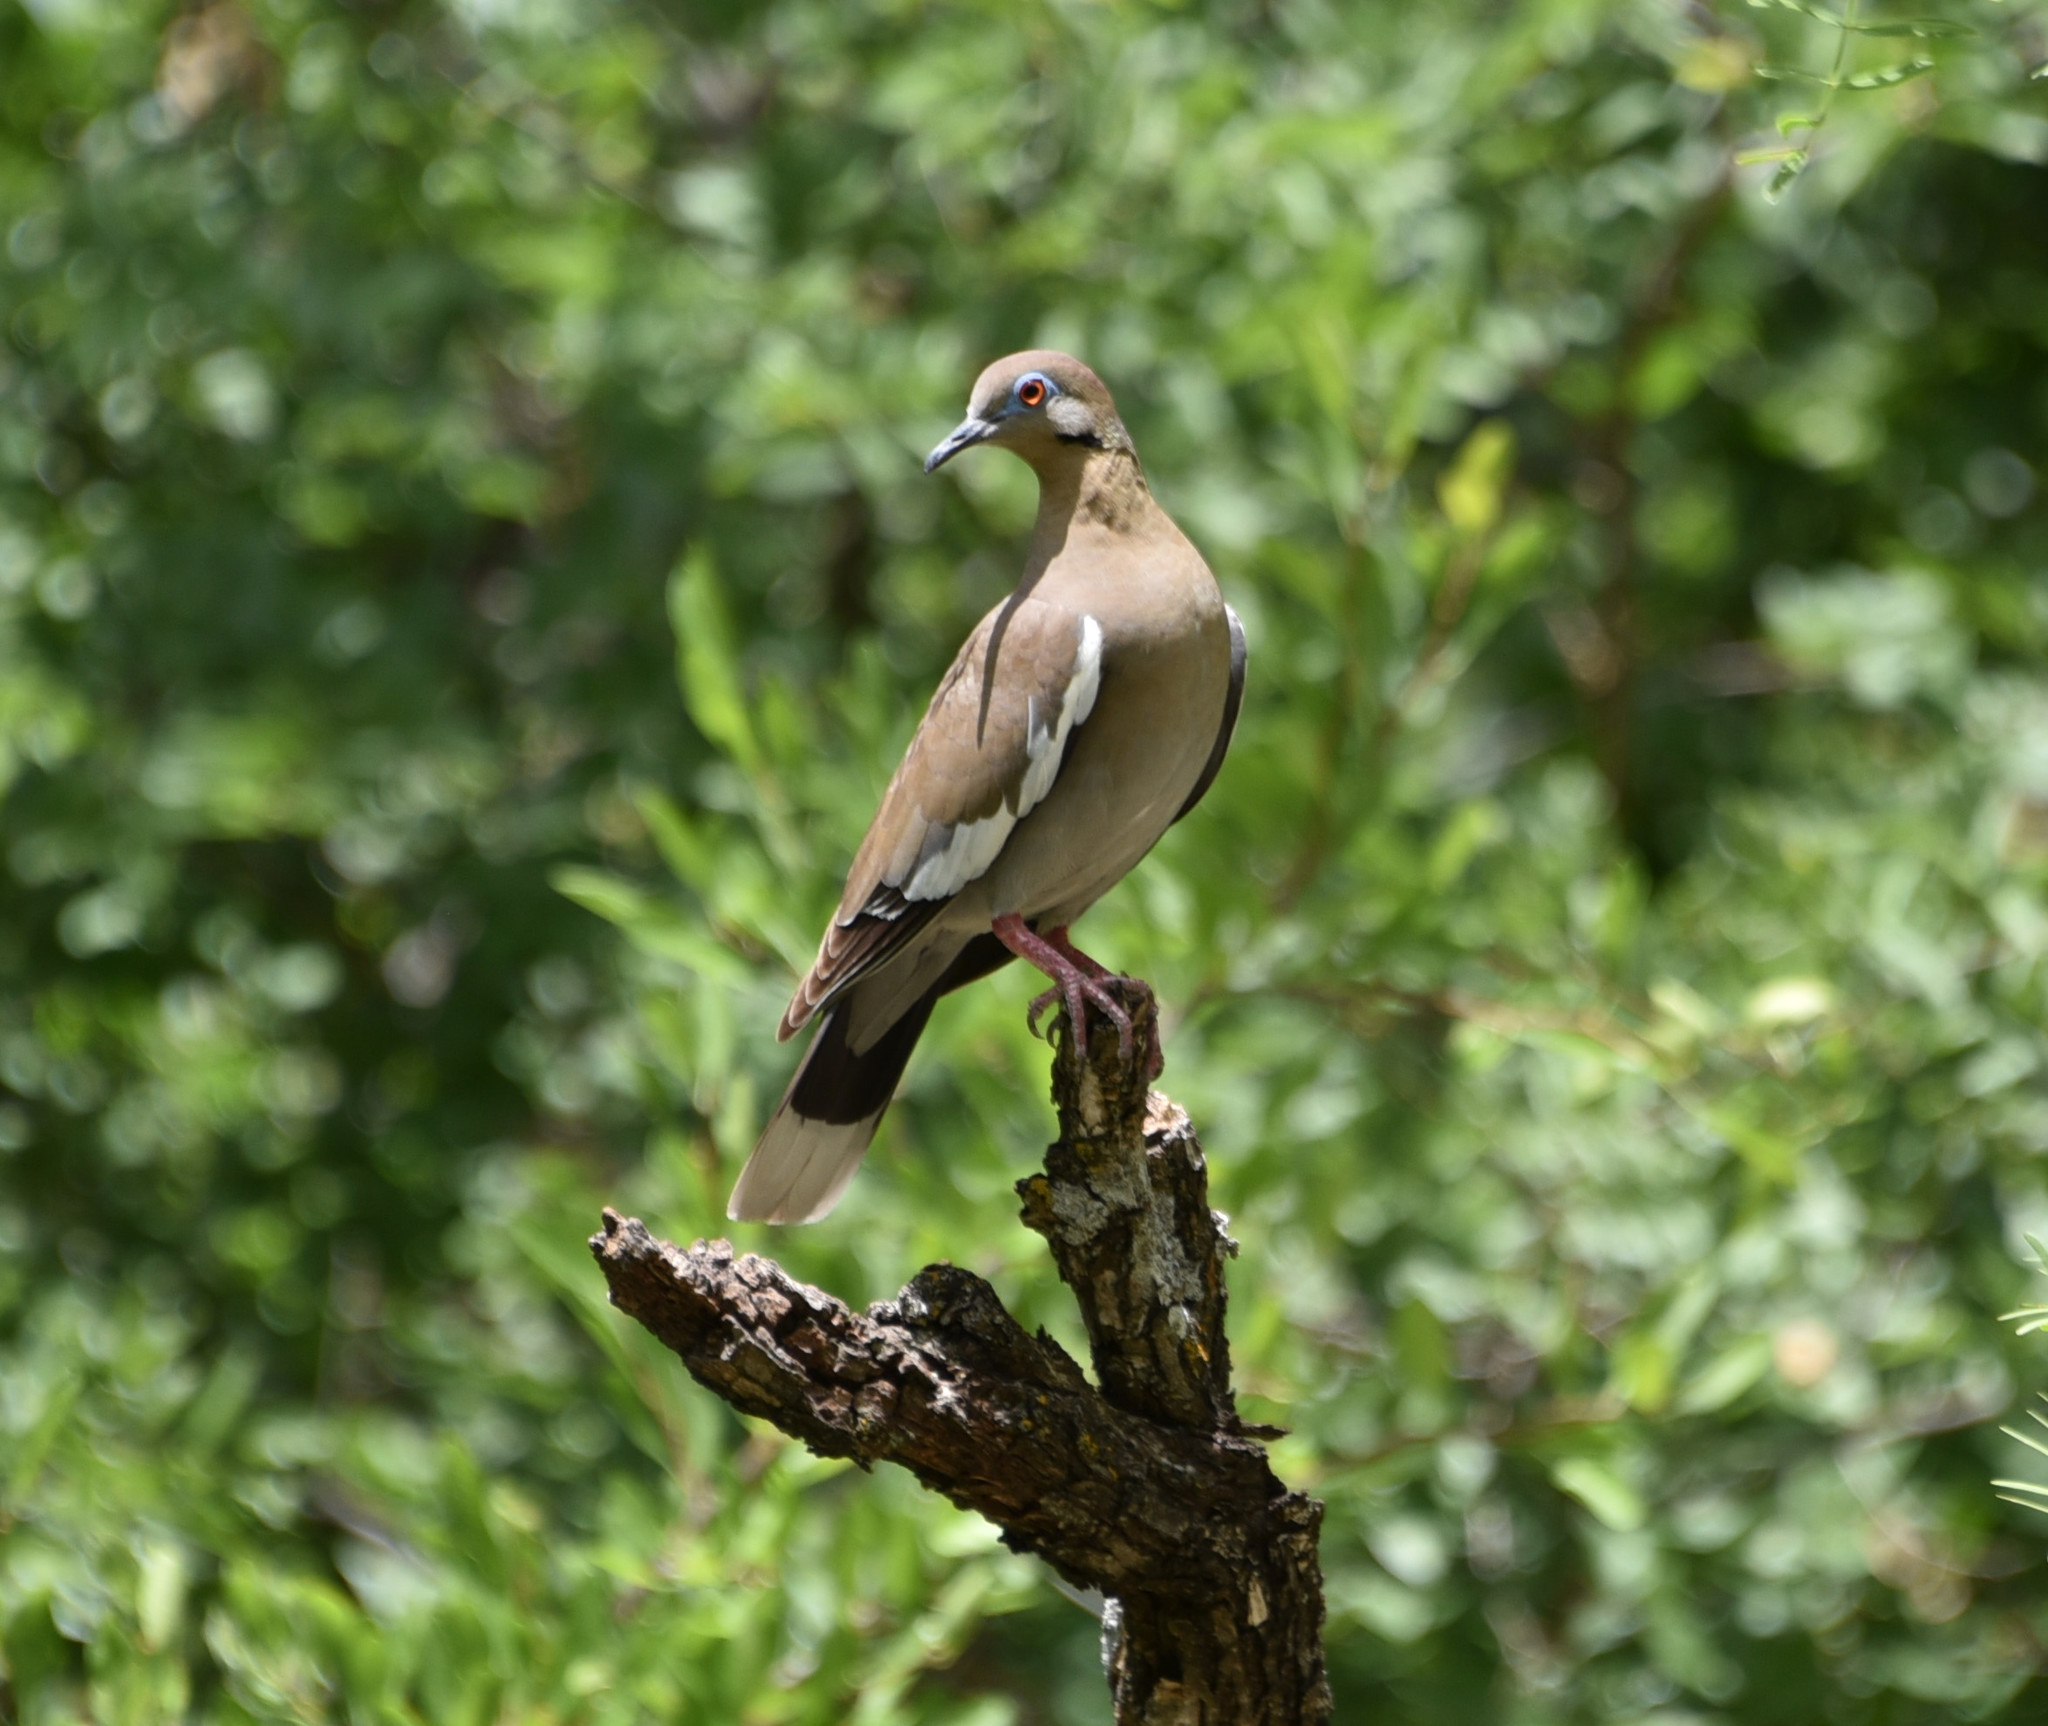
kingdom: Animalia
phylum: Chordata
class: Aves
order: Columbiformes
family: Columbidae
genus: Zenaida
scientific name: Zenaida asiatica
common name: White-winged dove
